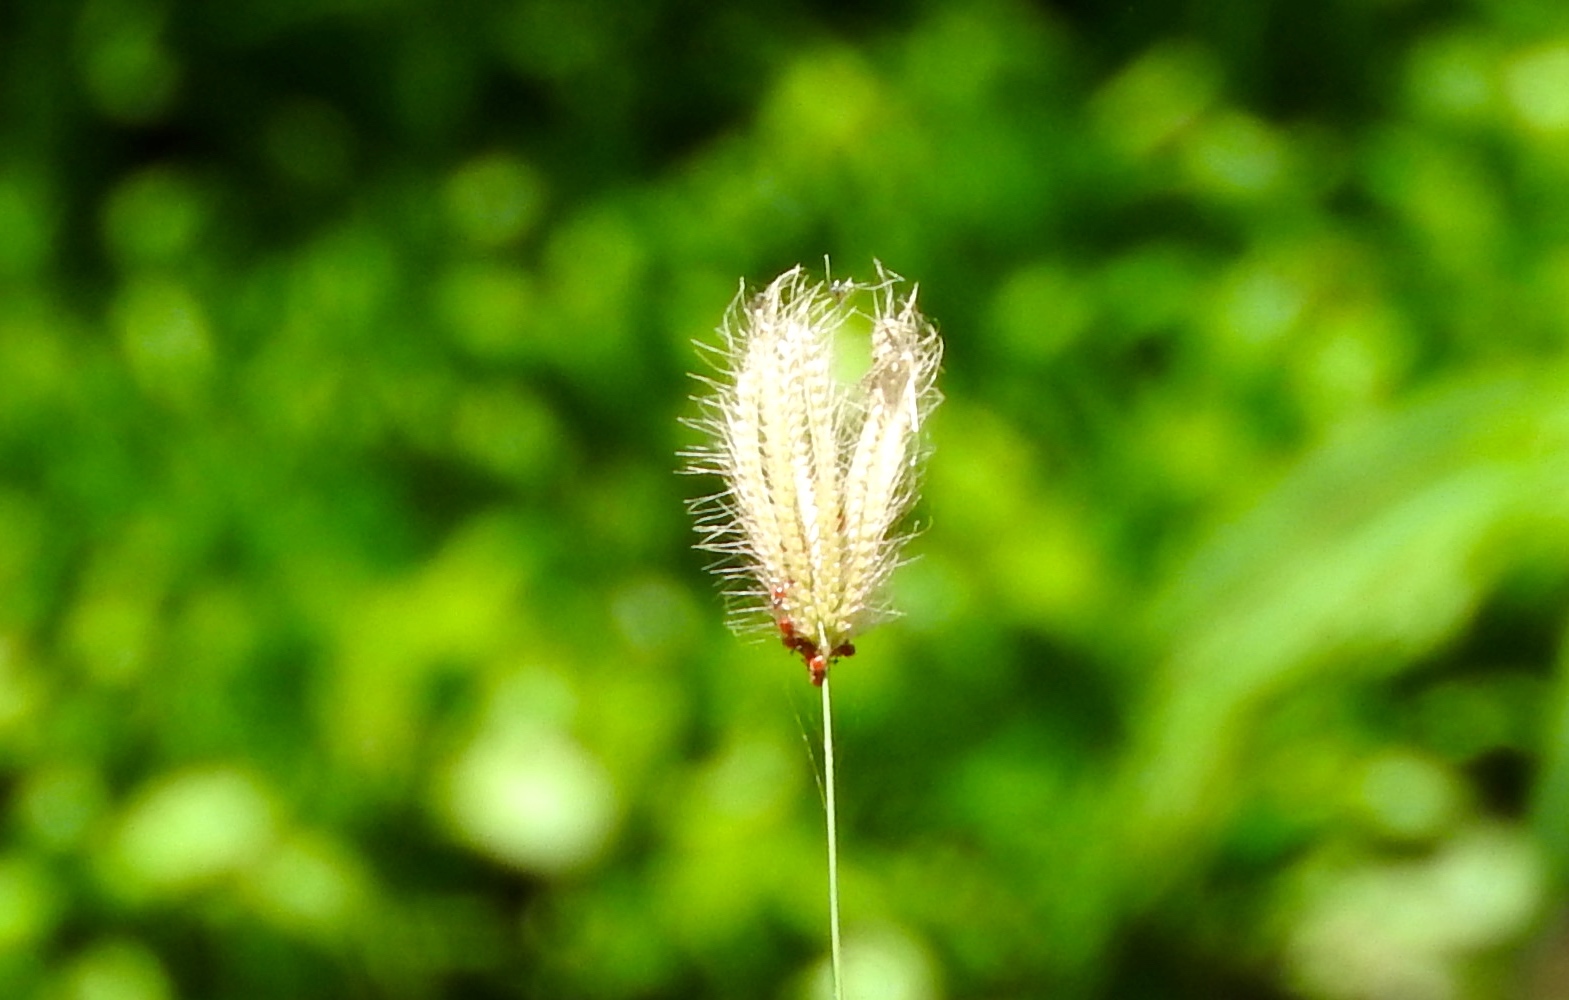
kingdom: Plantae
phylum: Tracheophyta
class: Liliopsida
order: Poales
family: Poaceae
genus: Chloris
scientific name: Chloris barbata
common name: Swollen fingergrass
